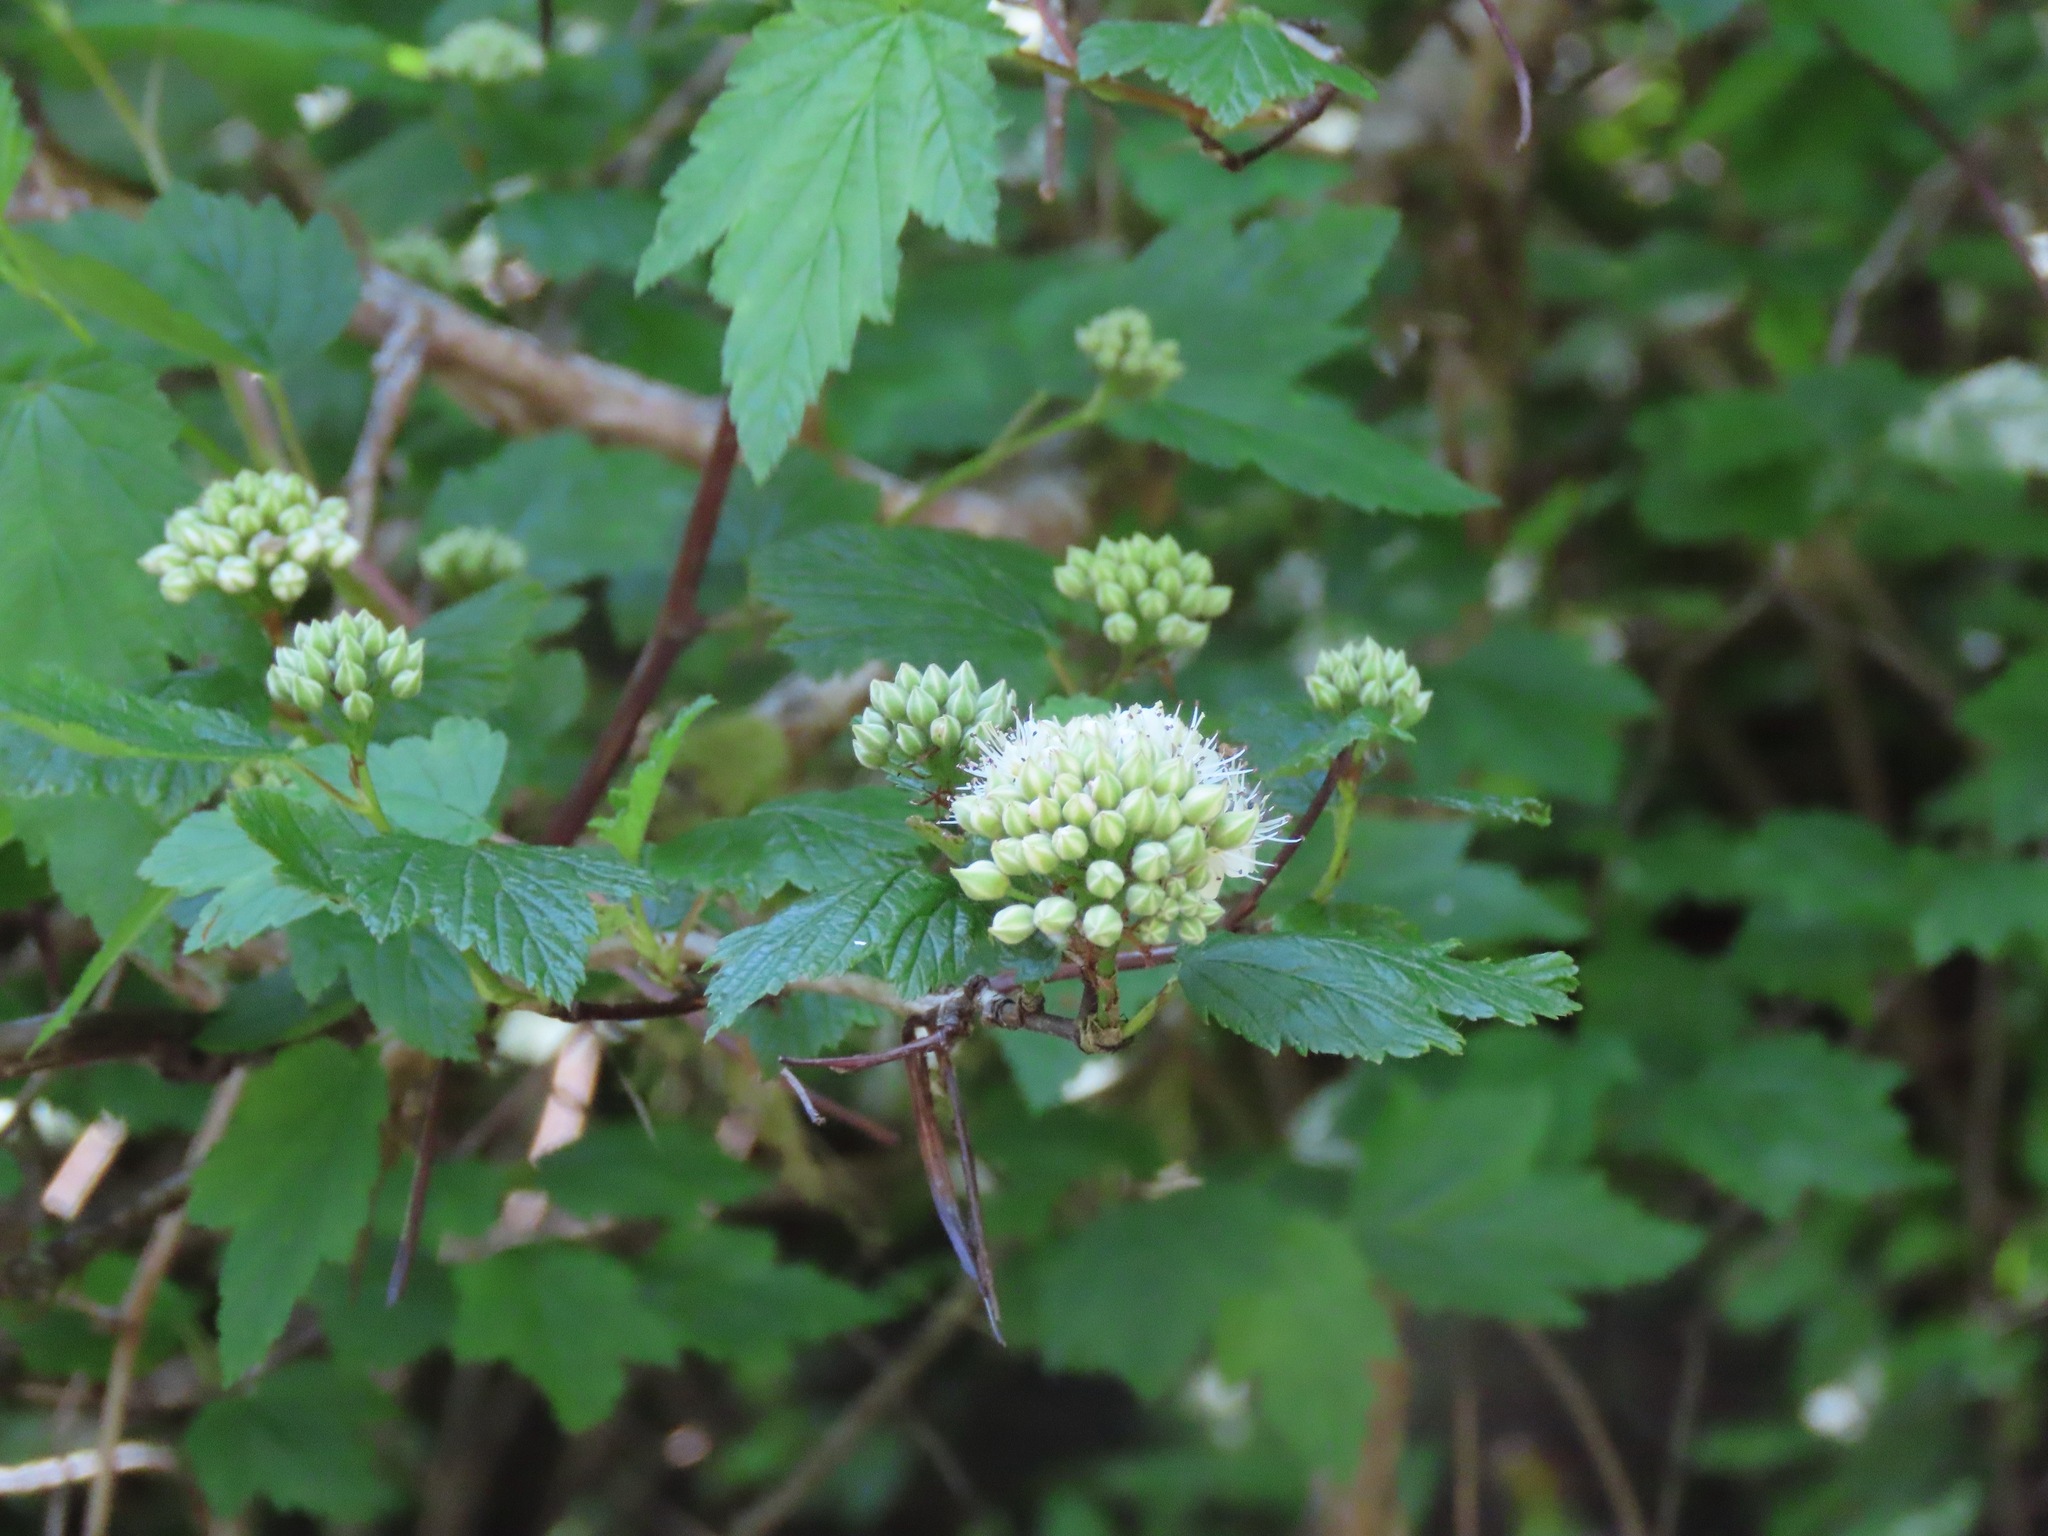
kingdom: Plantae
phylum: Tracheophyta
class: Magnoliopsida
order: Rosales
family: Rosaceae
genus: Physocarpus
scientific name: Physocarpus capitatus
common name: Pacific ninebark
